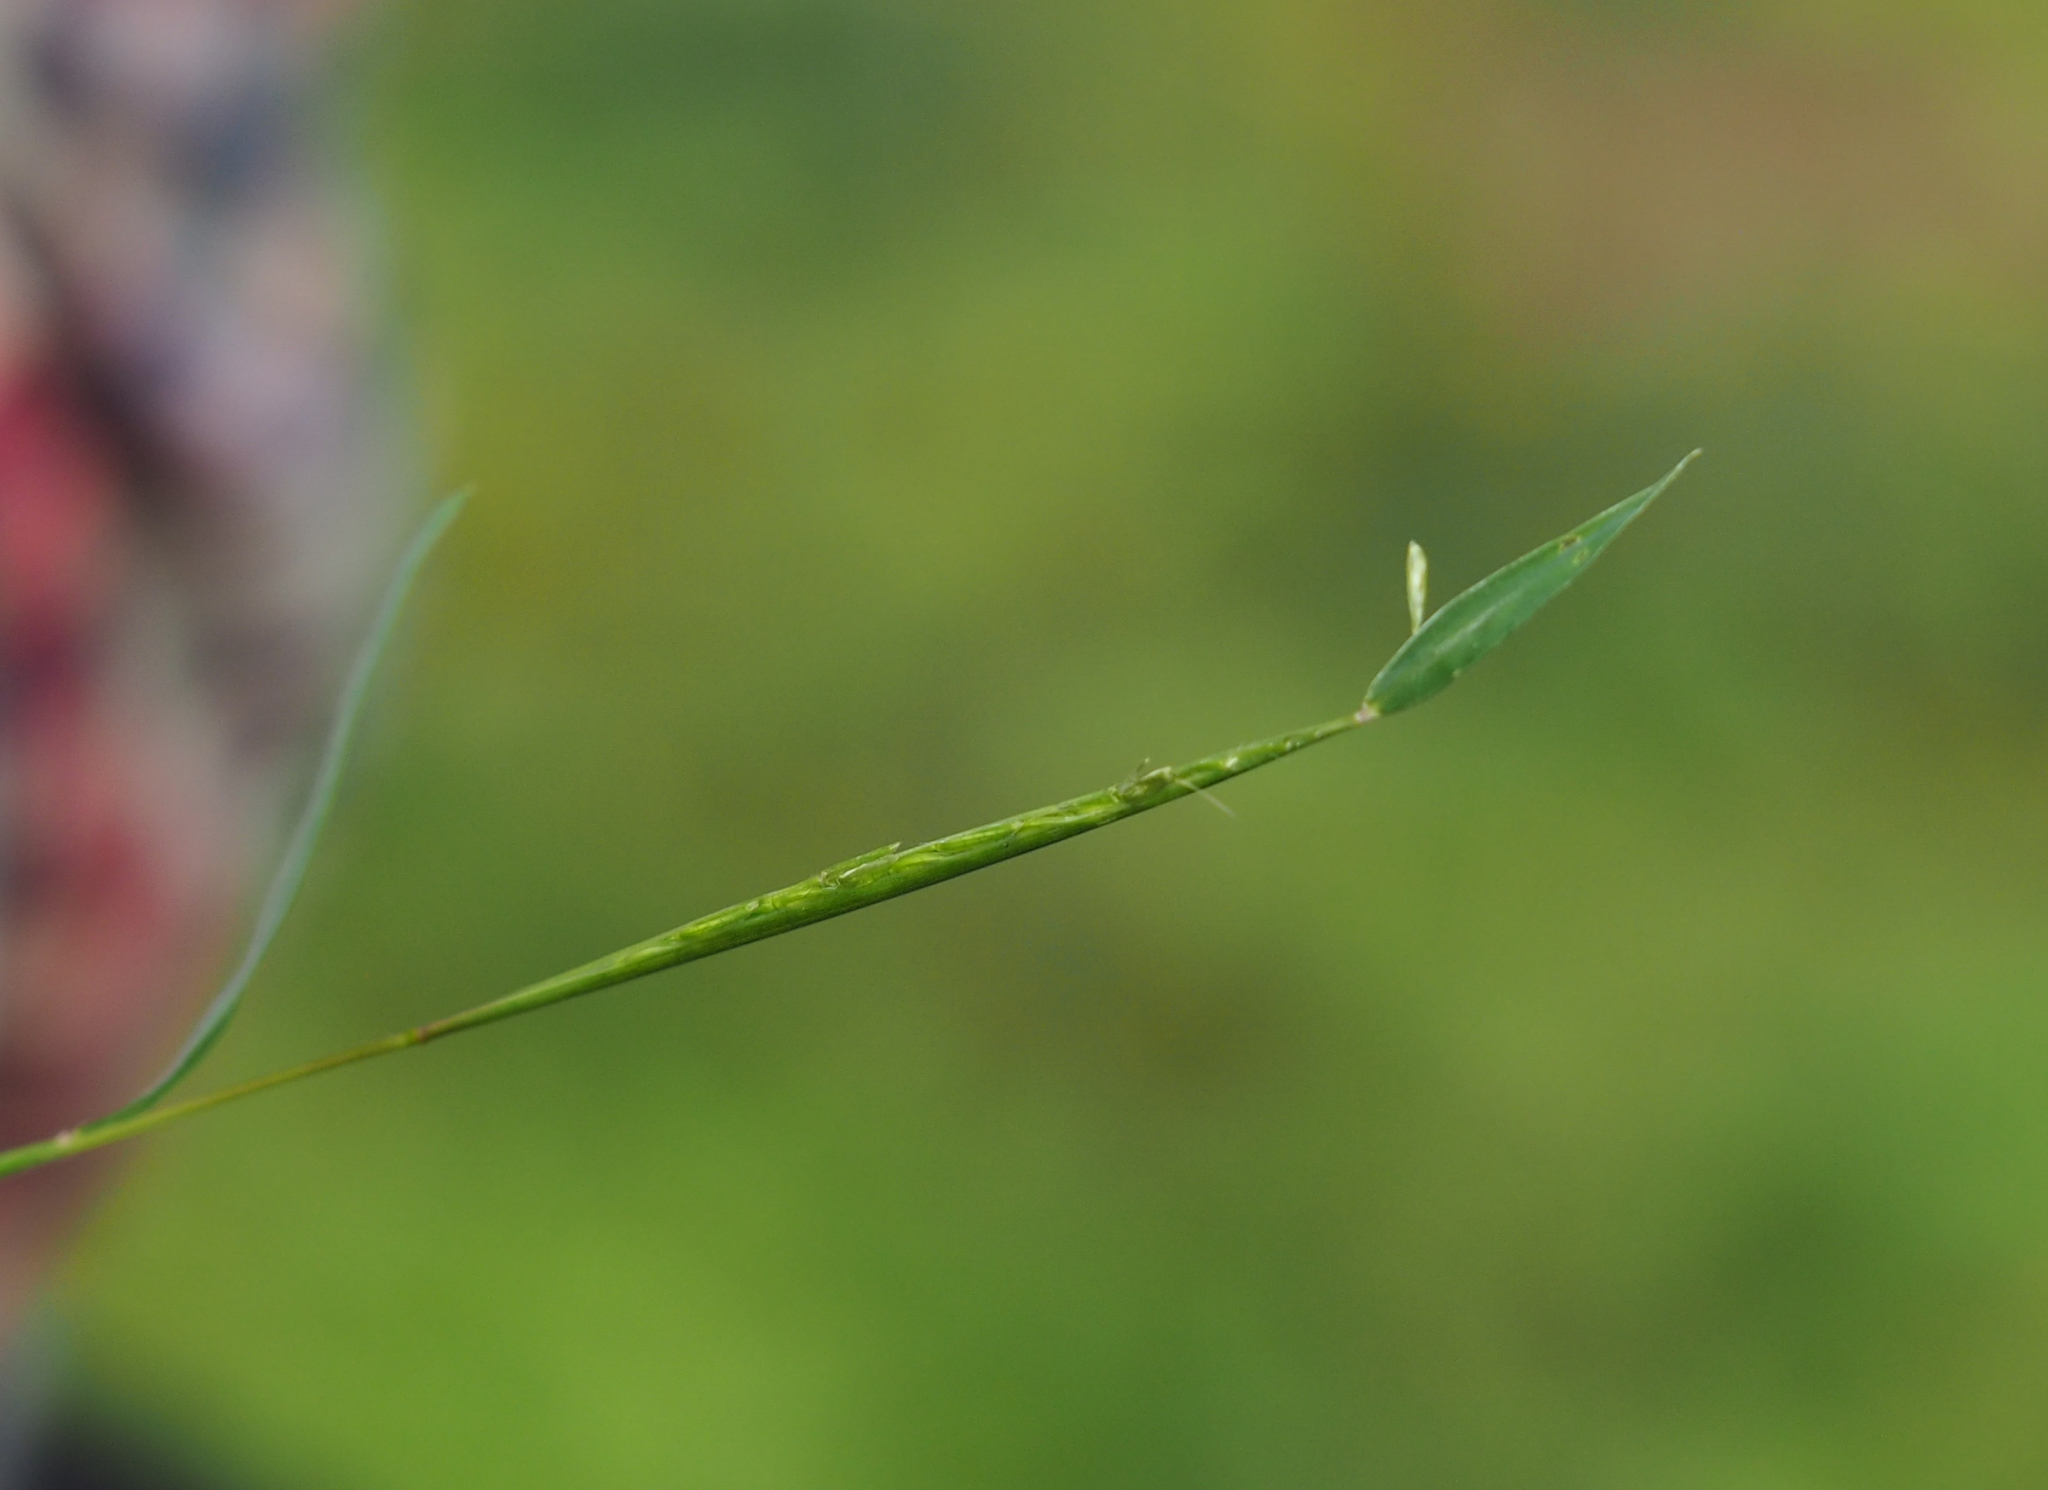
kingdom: Plantae
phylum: Tracheophyta
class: Liliopsida
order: Poales
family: Poaceae
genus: Microstegium
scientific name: Microstegium vimineum
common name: Japanese stiltgrass
